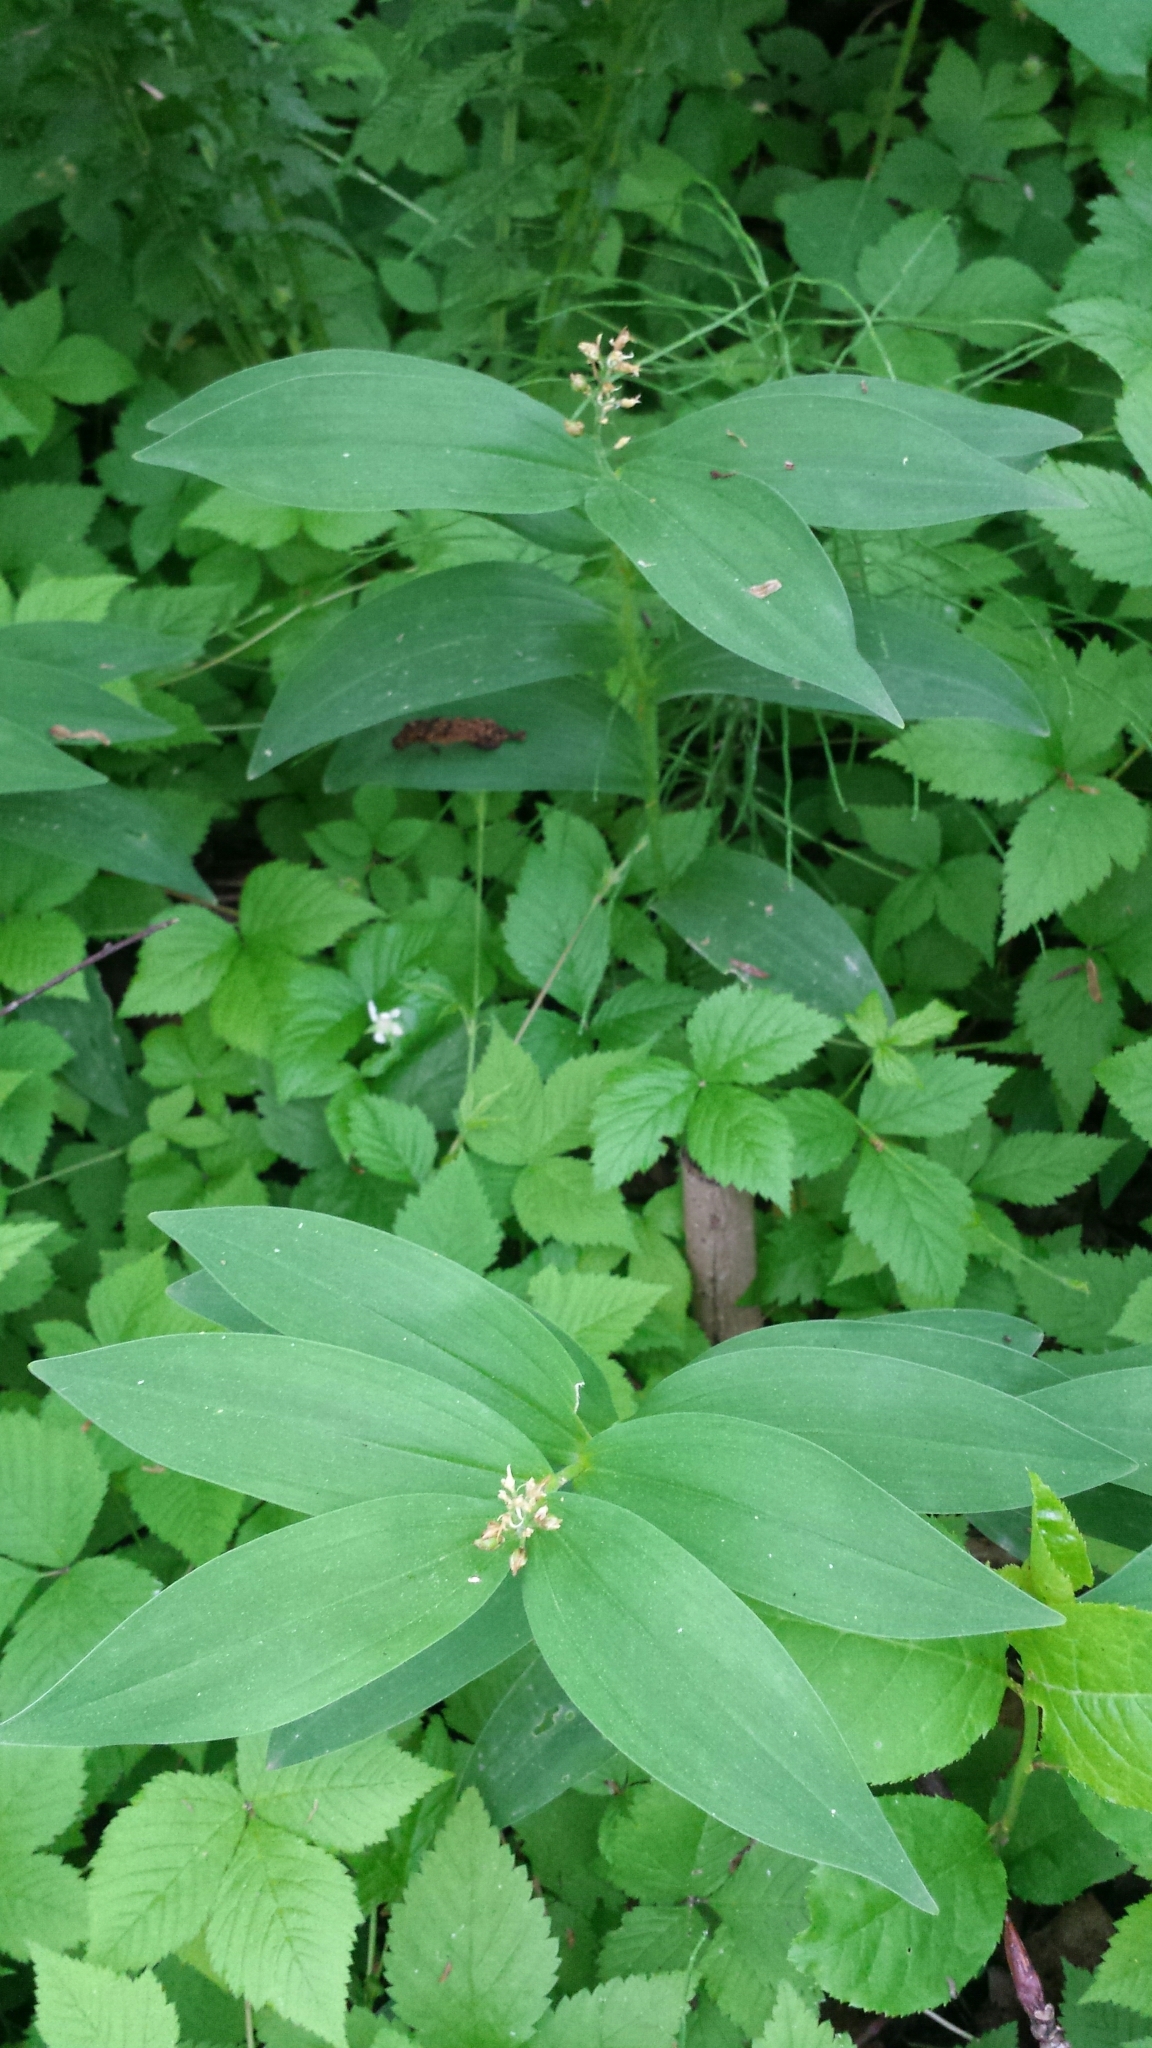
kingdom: Plantae
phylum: Tracheophyta
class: Liliopsida
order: Asparagales
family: Asparagaceae
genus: Maianthemum
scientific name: Maianthemum stellatum
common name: Little false solomon's seal
